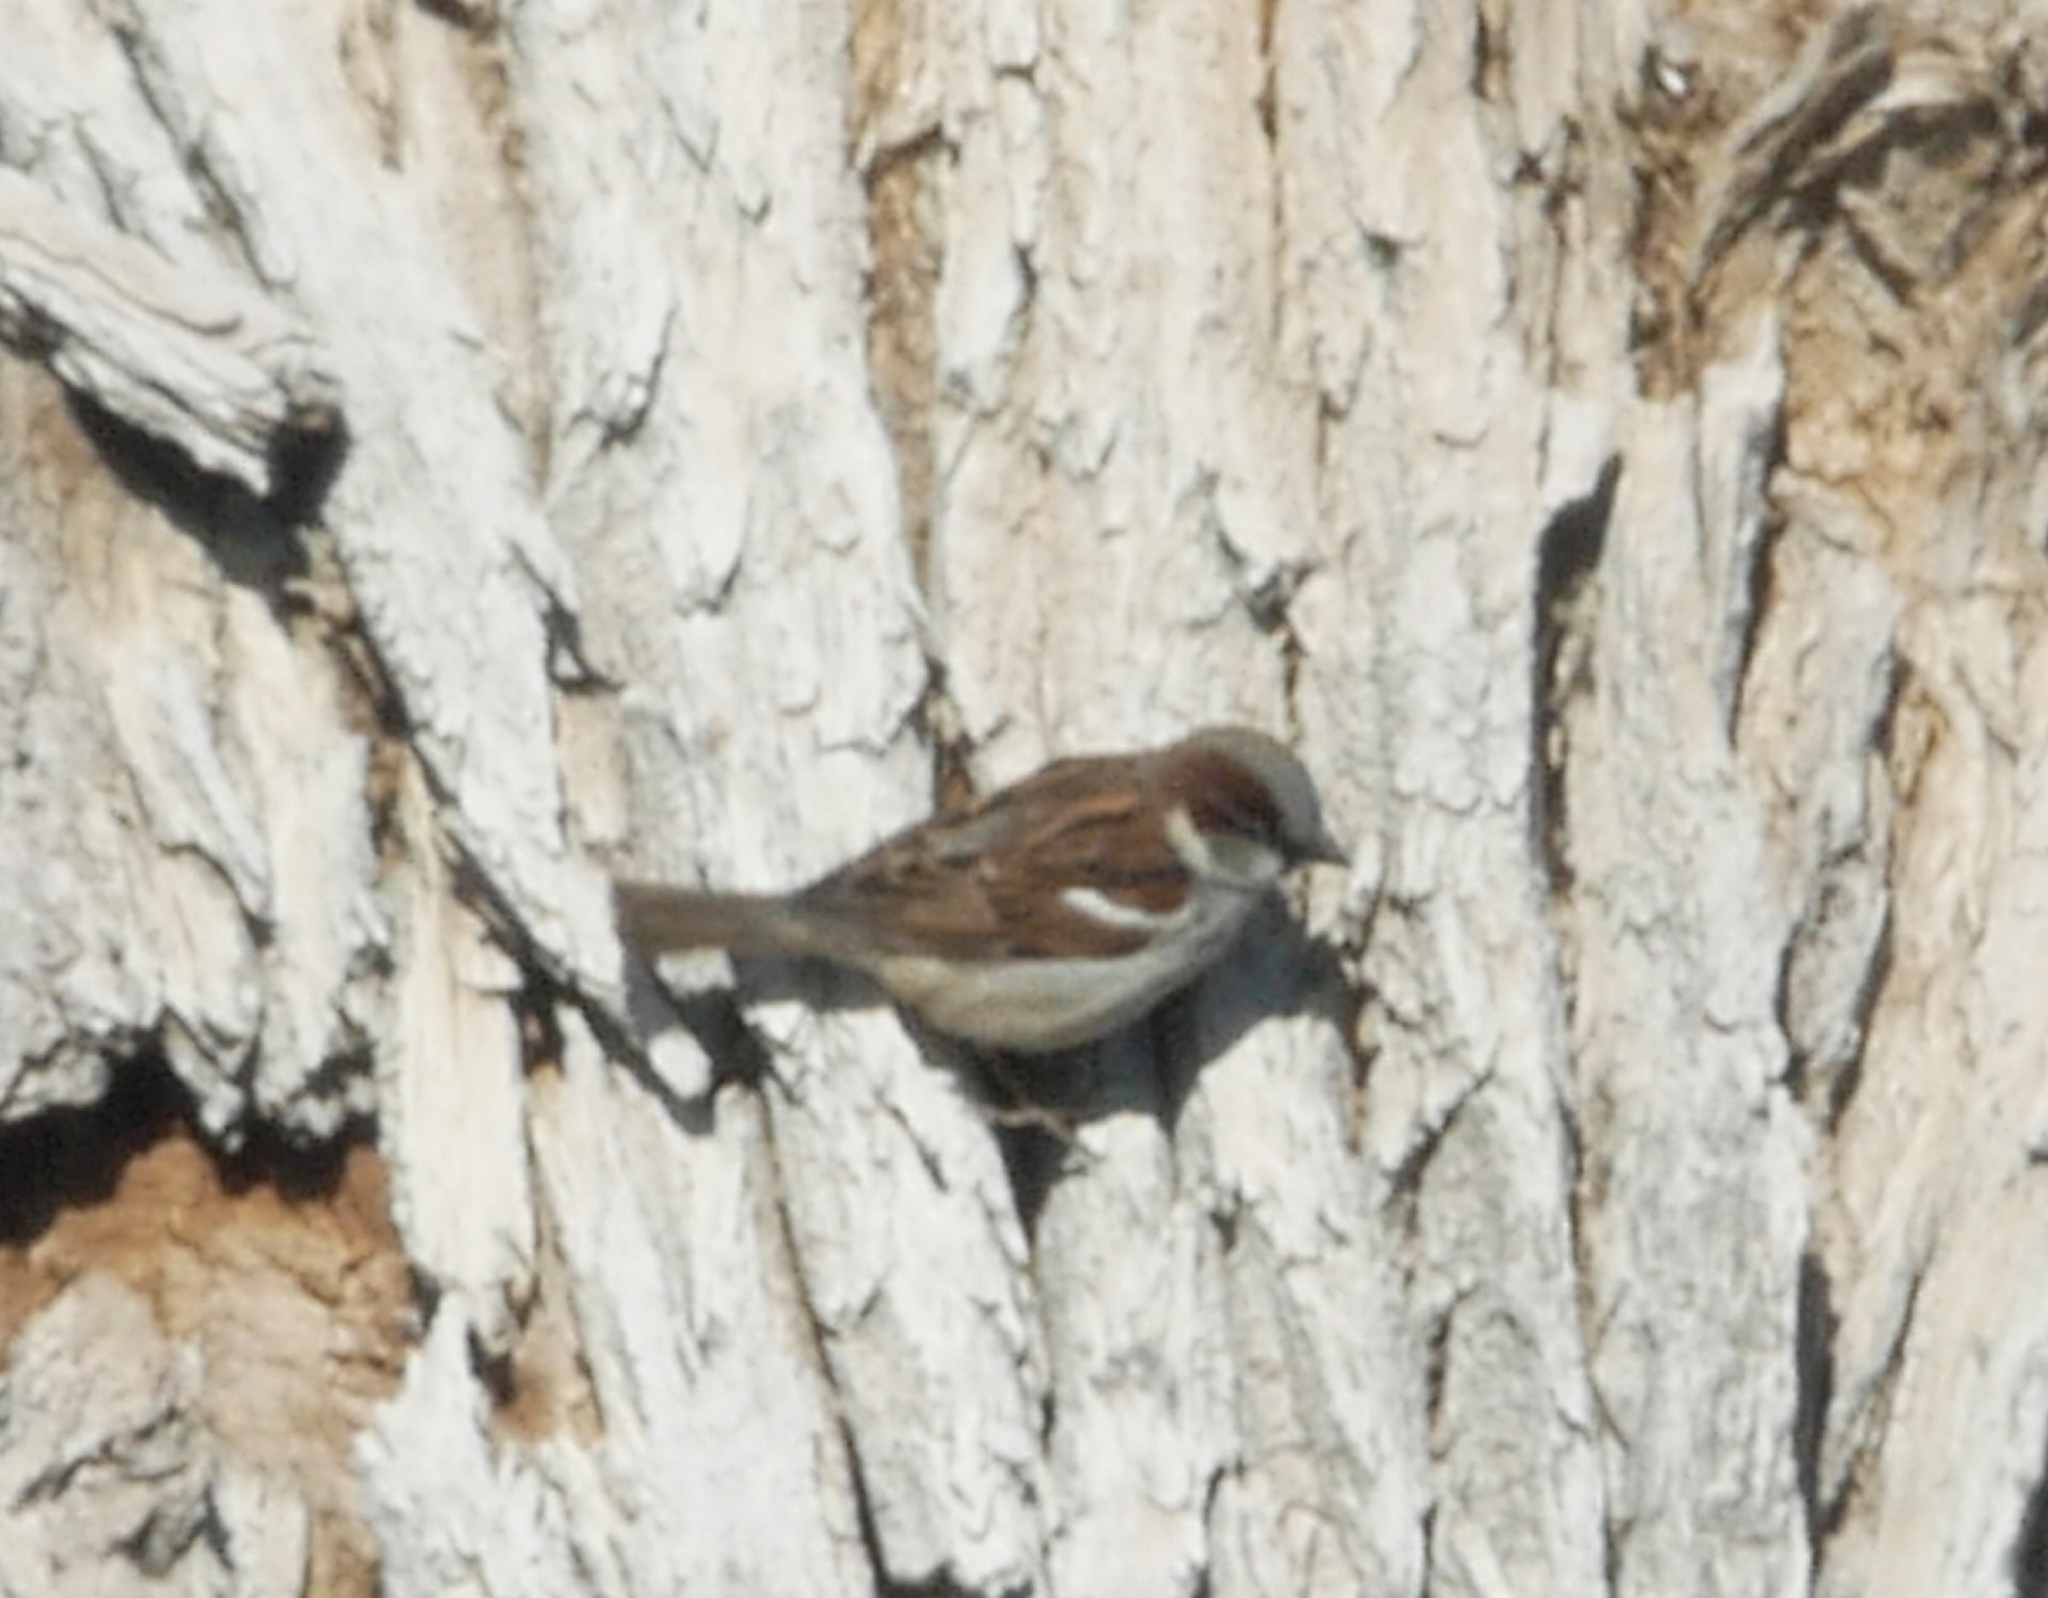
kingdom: Animalia
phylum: Chordata
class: Aves
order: Passeriformes
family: Passeridae
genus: Passer
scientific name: Passer domesticus
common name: House sparrow
